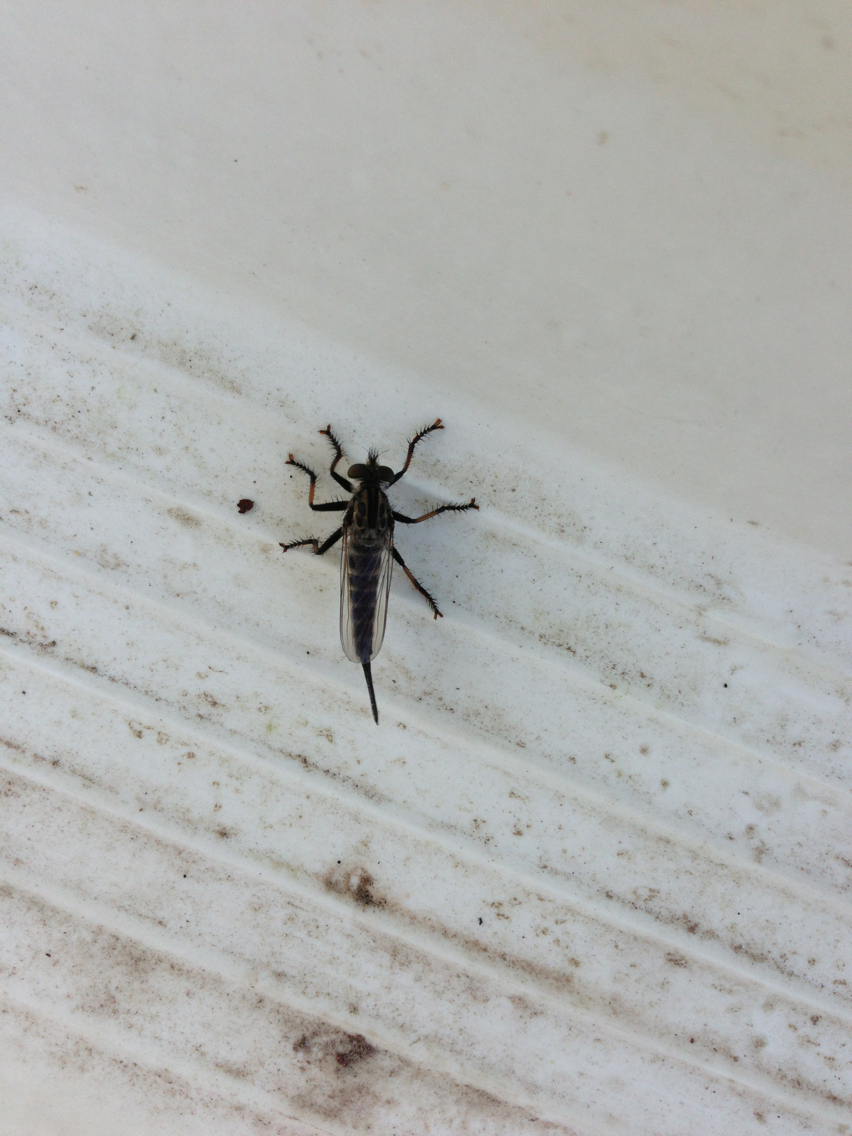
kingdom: Animalia
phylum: Arthropoda
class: Insecta
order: Diptera
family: Asilidae
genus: Efferia
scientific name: Efferia aestuans
